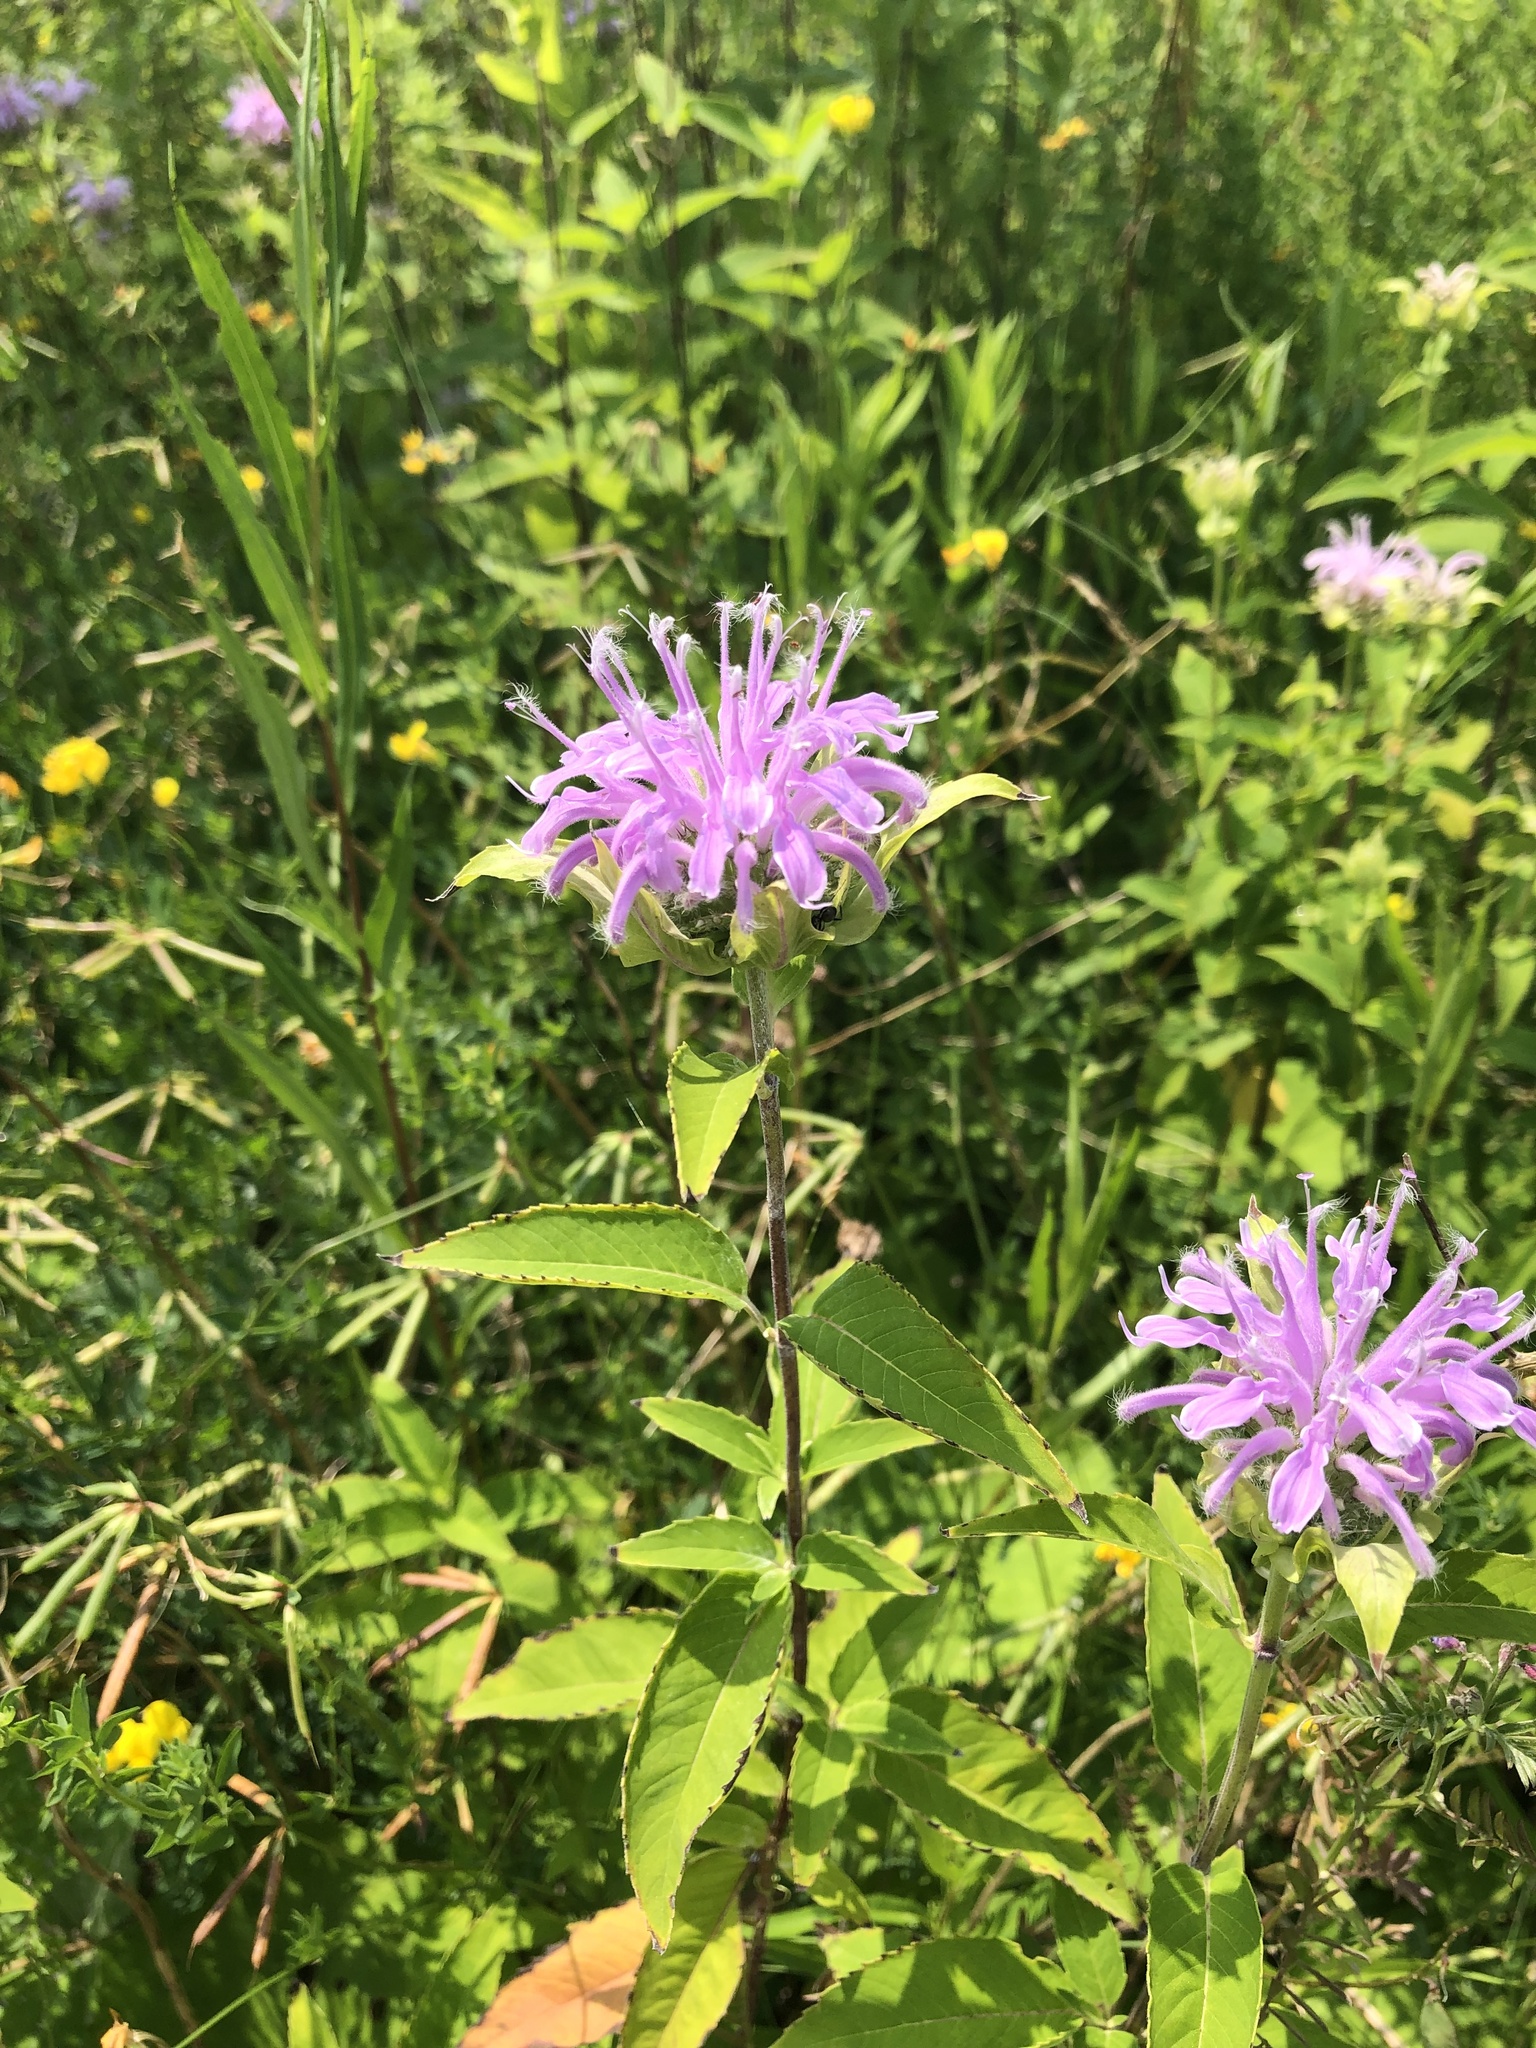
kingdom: Plantae
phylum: Tracheophyta
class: Magnoliopsida
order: Lamiales
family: Lamiaceae
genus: Monarda
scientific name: Monarda fistulosa
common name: Purple beebalm
